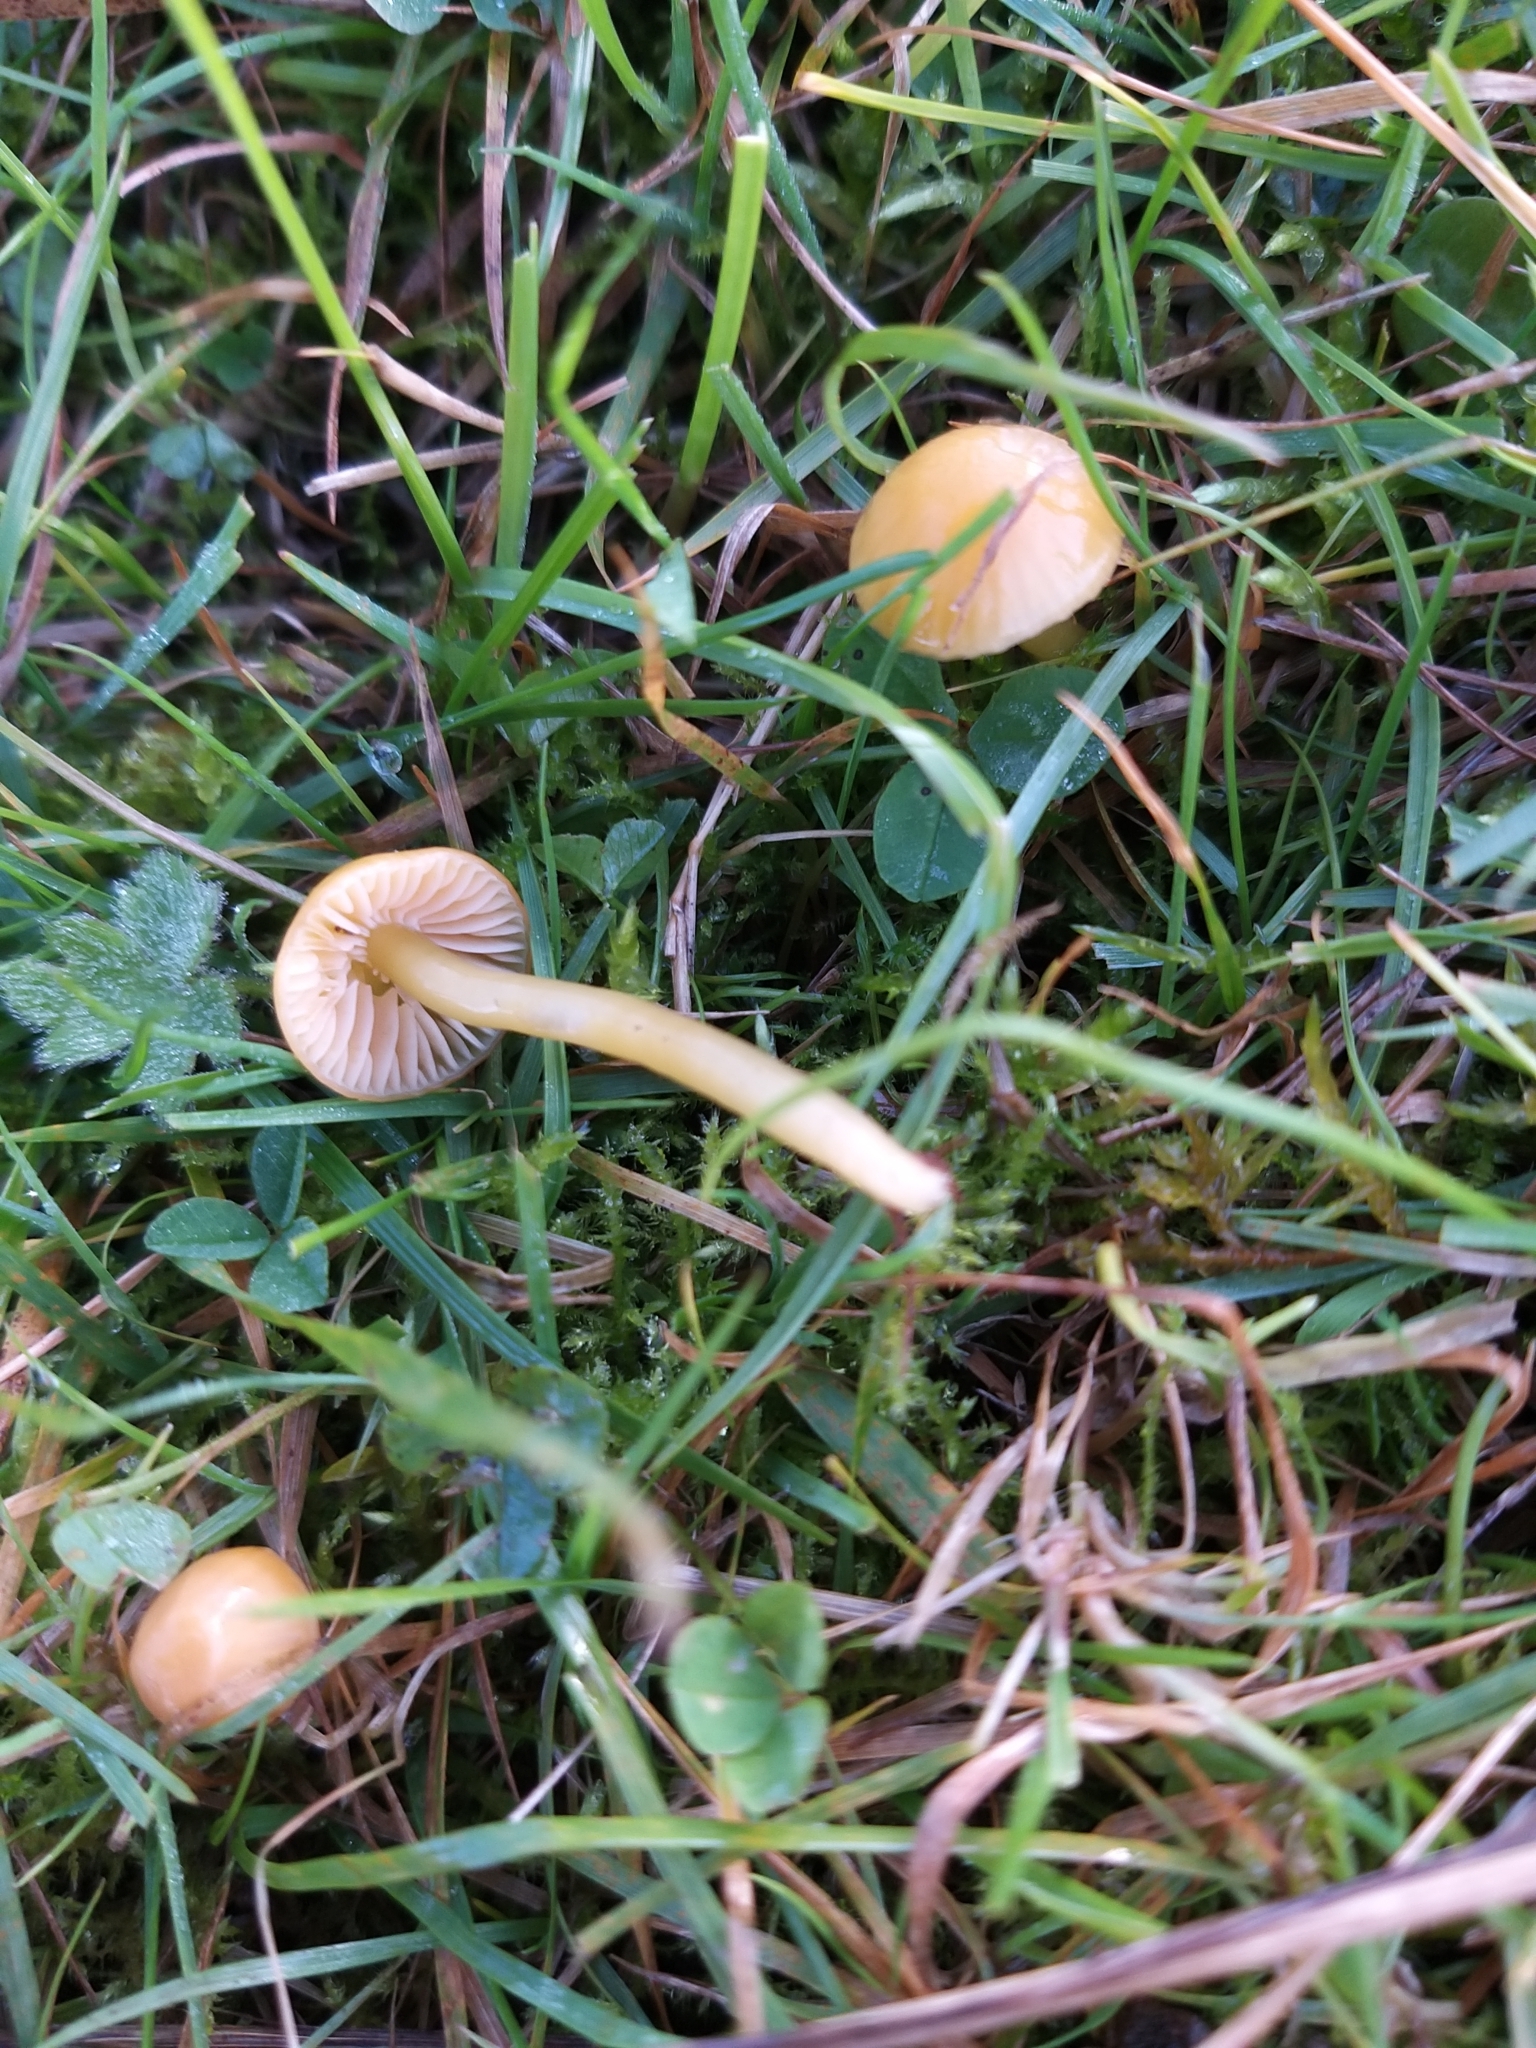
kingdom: Fungi
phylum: Basidiomycota
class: Agaricomycetes
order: Agaricales
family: Hygrophoraceae
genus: Gliophorus
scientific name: Gliophorus psittacinus
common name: Parrot wax-cap
